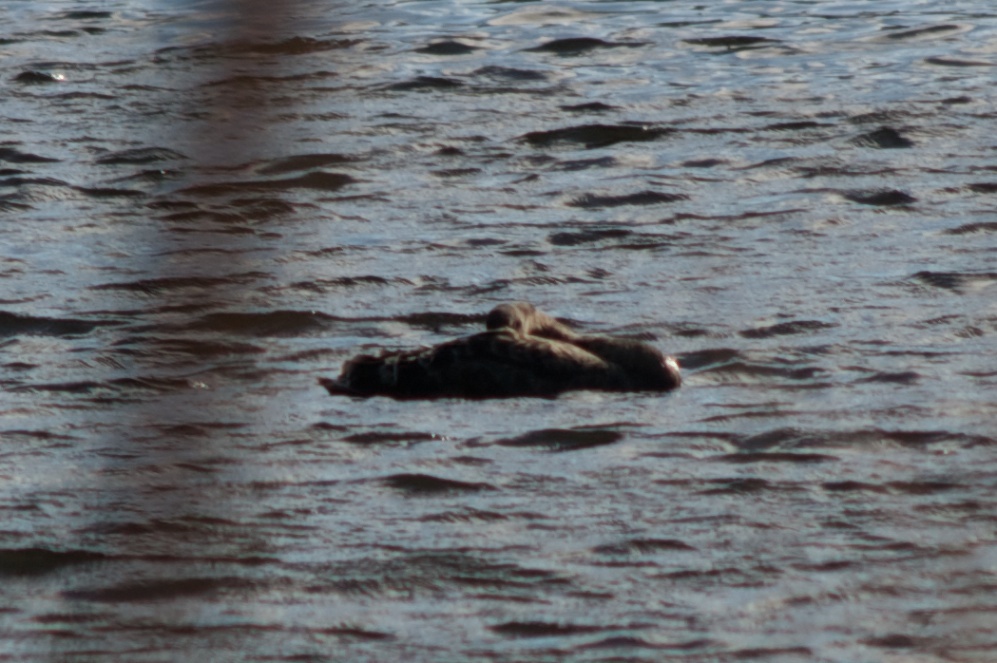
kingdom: Animalia
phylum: Chordata
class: Aves
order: Anseriformes
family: Anatidae
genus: Cygnus
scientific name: Cygnus atratus
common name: Black swan
